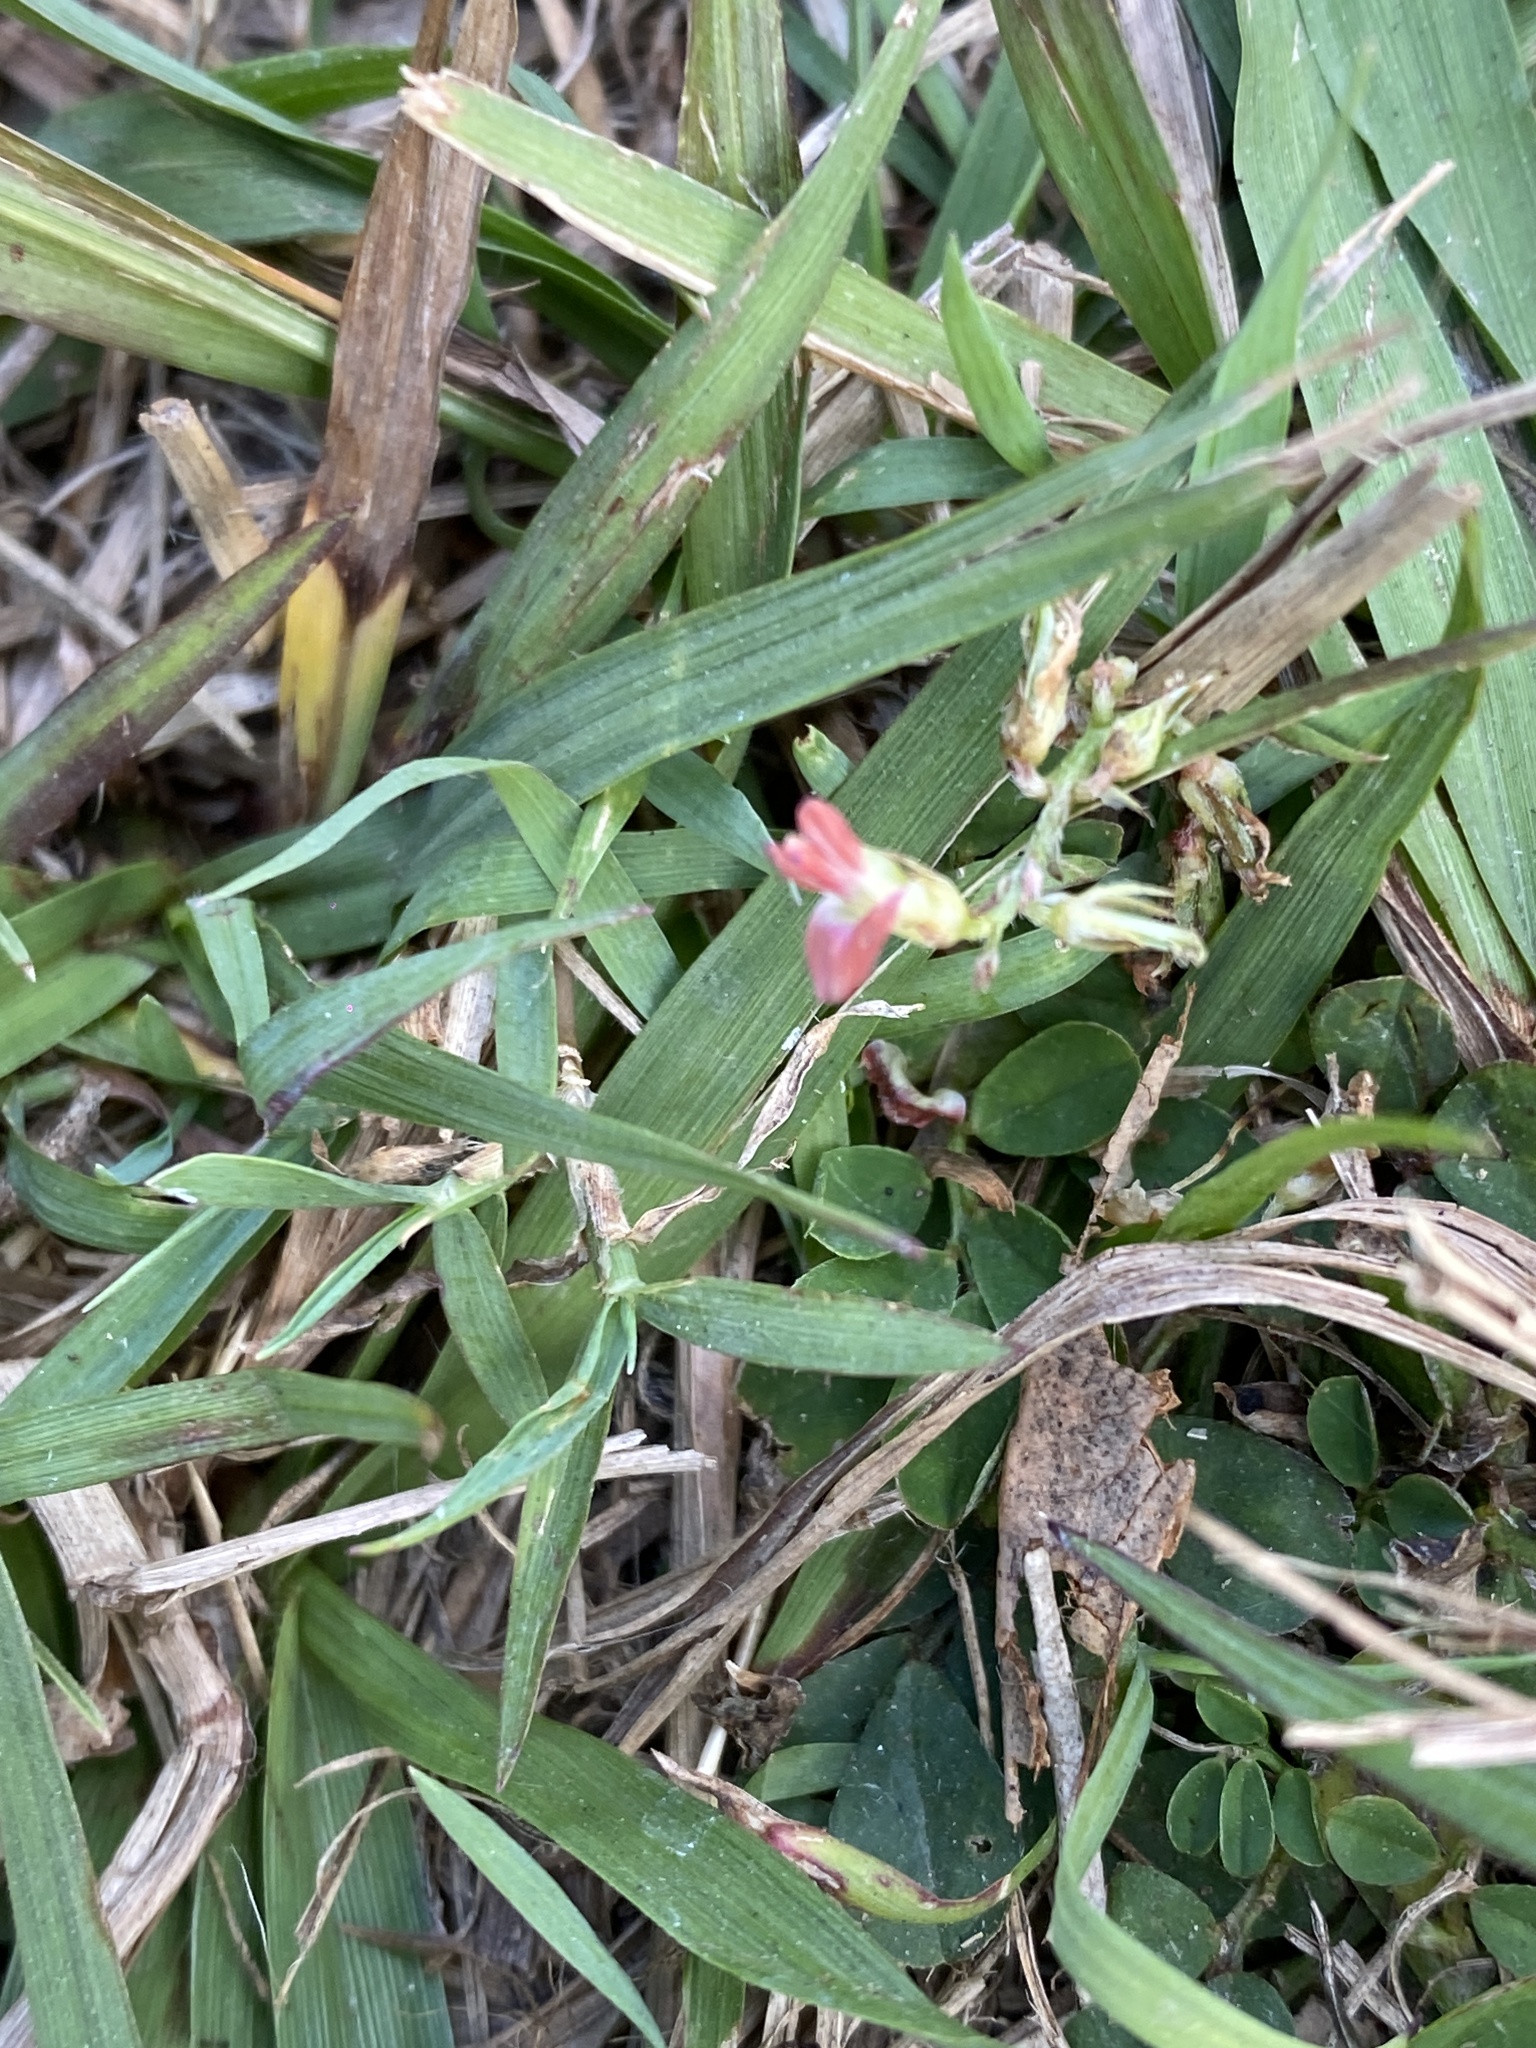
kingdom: Plantae
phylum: Tracheophyta
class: Magnoliopsida
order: Fabales
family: Fabaceae
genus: Indigofera
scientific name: Indigofera spicata
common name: Creeping indigo
